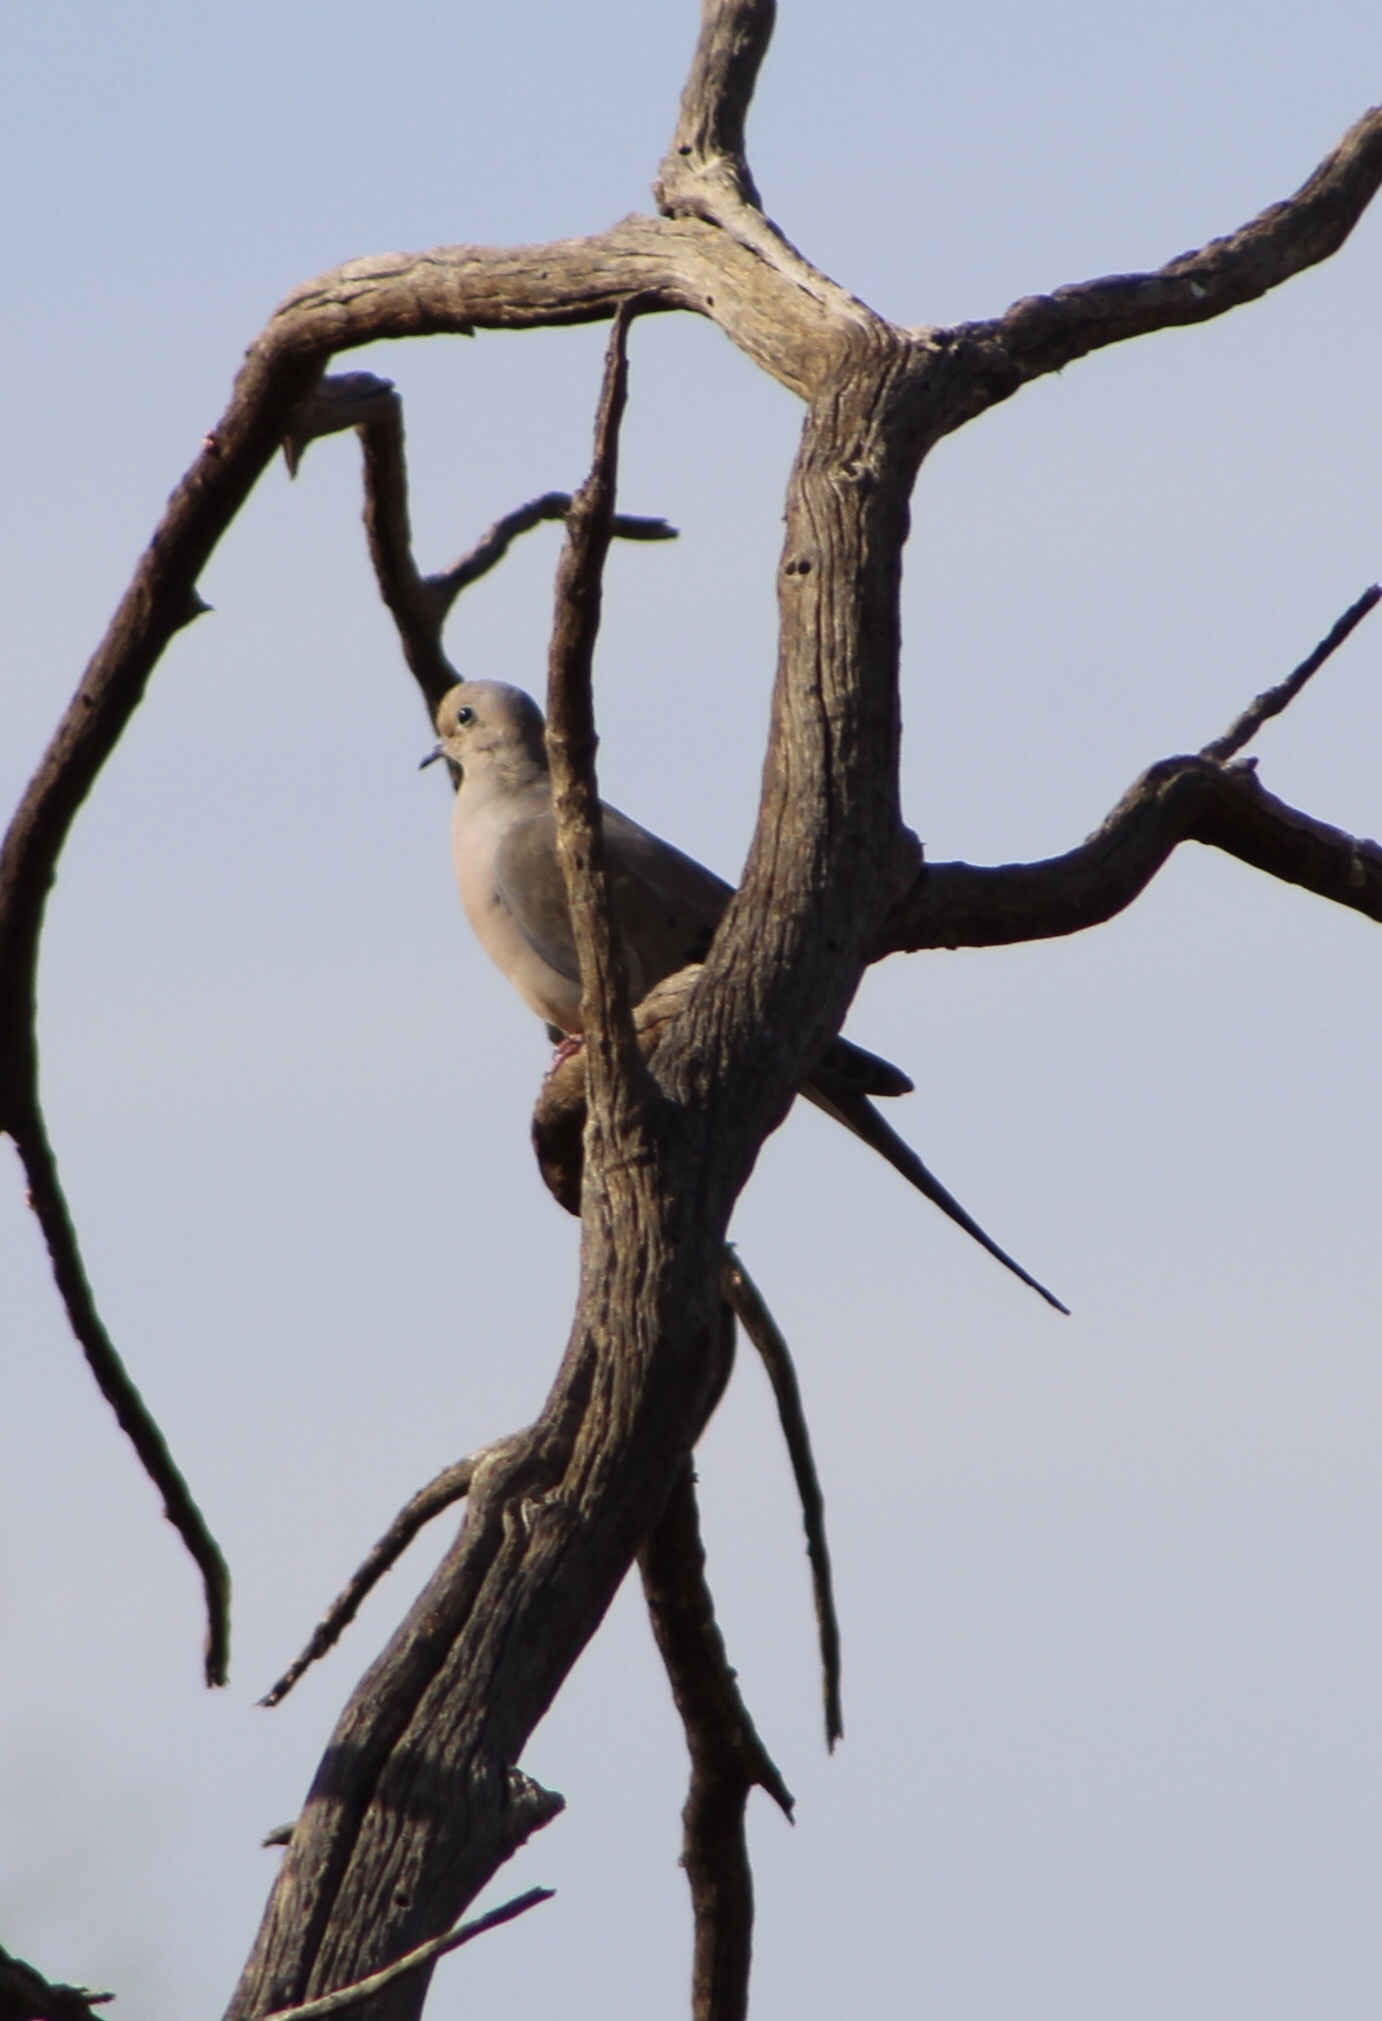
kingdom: Animalia
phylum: Chordata
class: Aves
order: Columbiformes
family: Columbidae
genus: Zenaida
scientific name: Zenaida macroura
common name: Mourning dove
